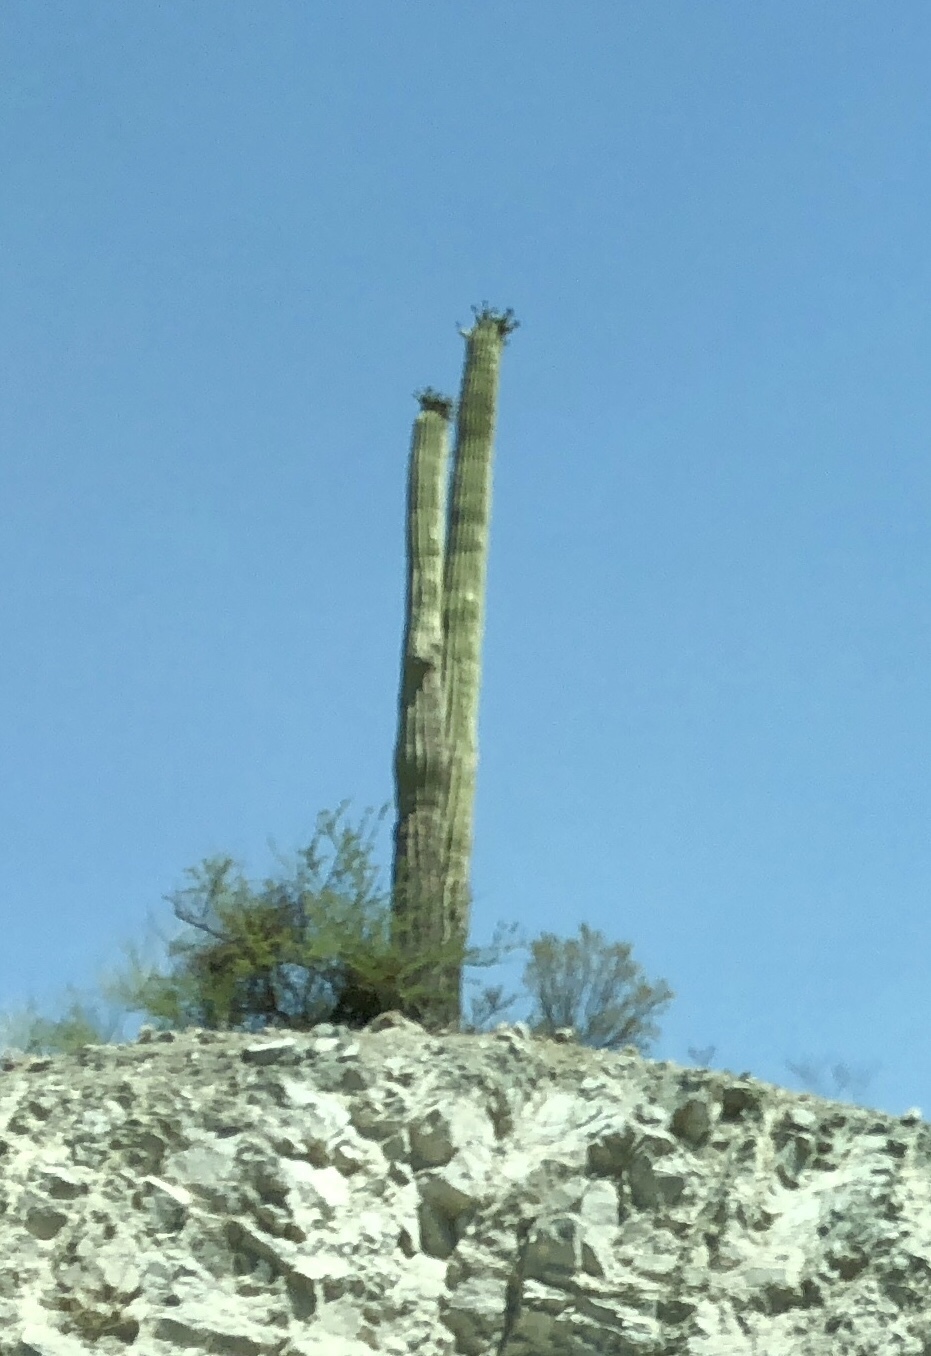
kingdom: Plantae
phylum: Tracheophyta
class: Magnoliopsida
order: Caryophyllales
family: Cactaceae
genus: Carnegiea
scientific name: Carnegiea gigantea
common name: Saguaro
